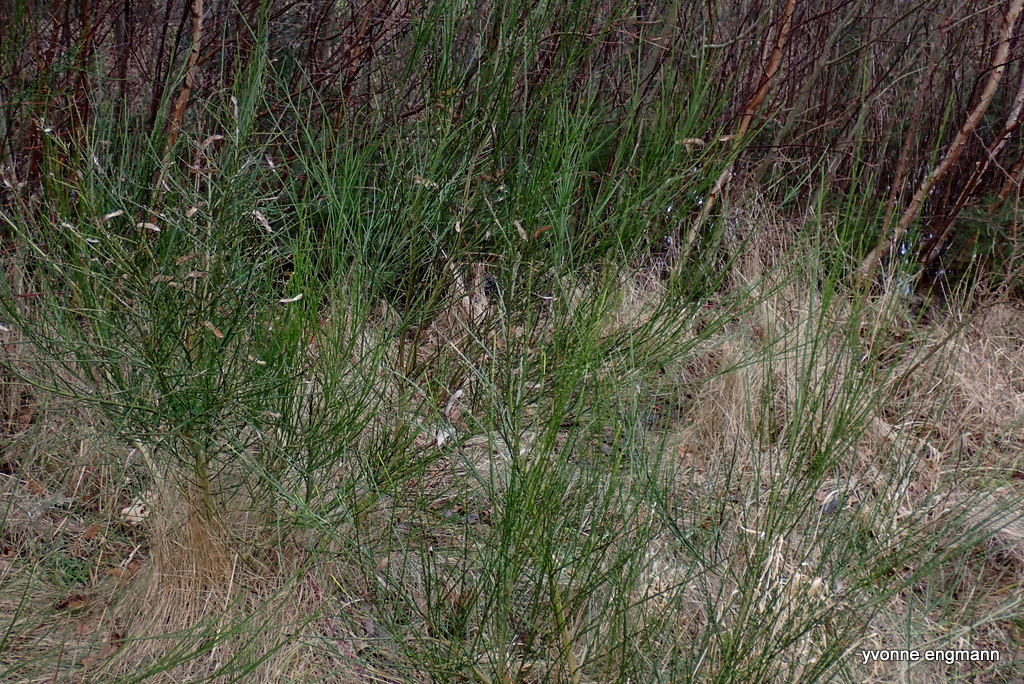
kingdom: Plantae
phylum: Tracheophyta
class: Magnoliopsida
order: Fabales
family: Fabaceae
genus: Cytisus
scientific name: Cytisus scoparius
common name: Scotch broom
